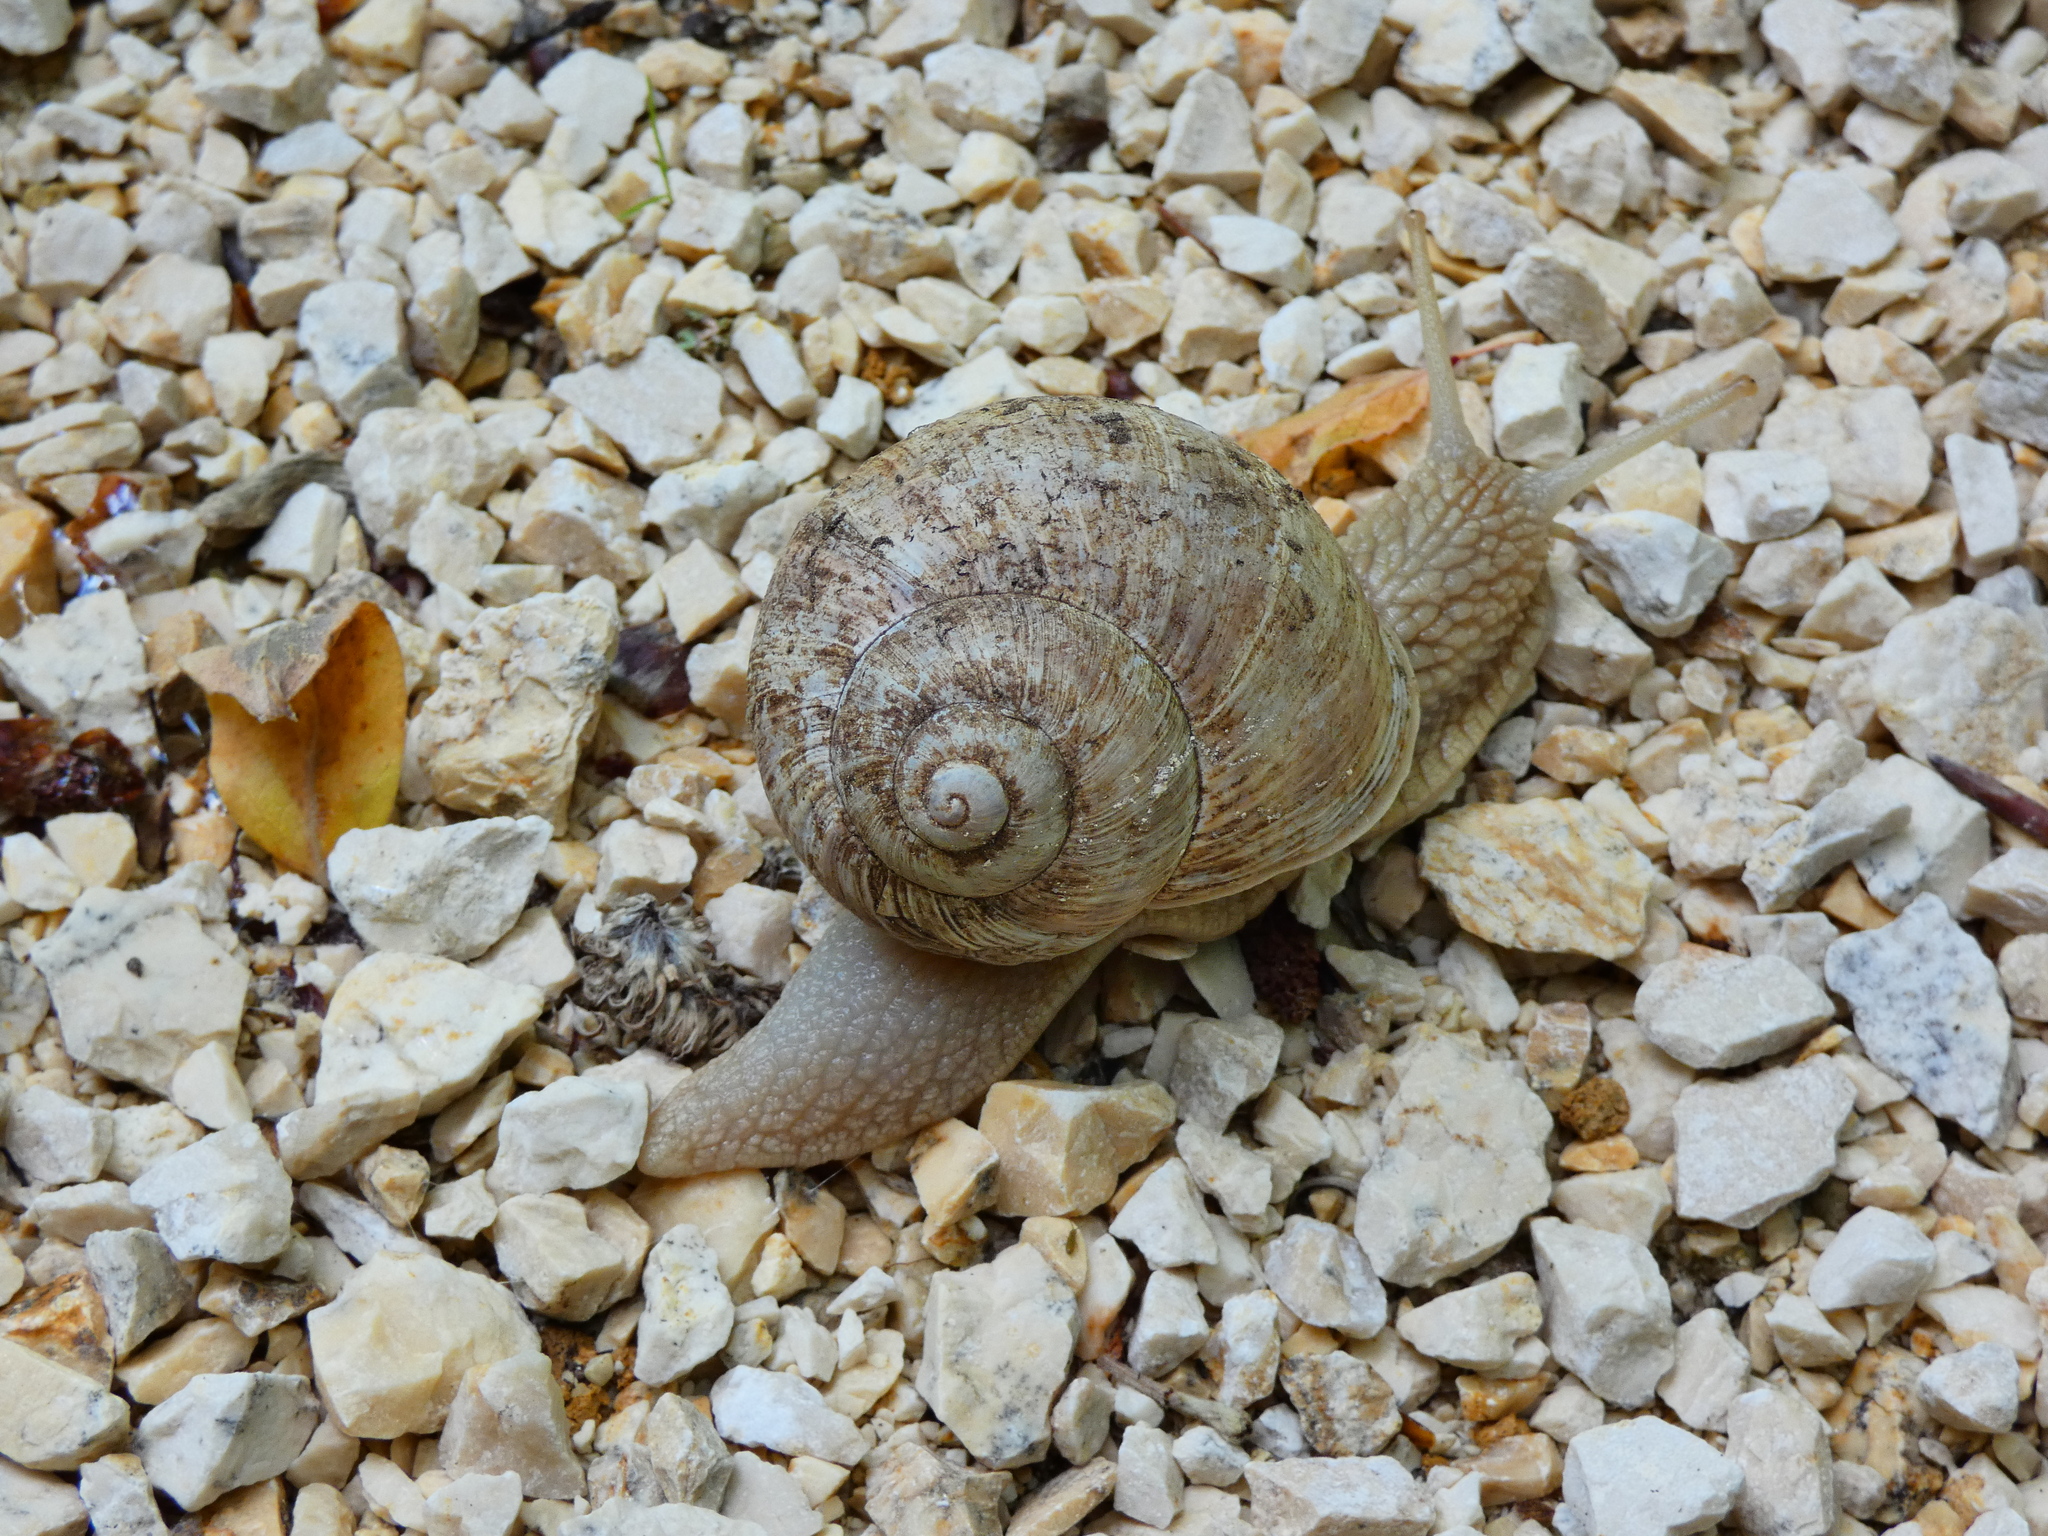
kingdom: Animalia
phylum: Mollusca
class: Gastropoda
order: Stylommatophora
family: Helicidae
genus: Helix
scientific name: Helix pomatia
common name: Roman snail
